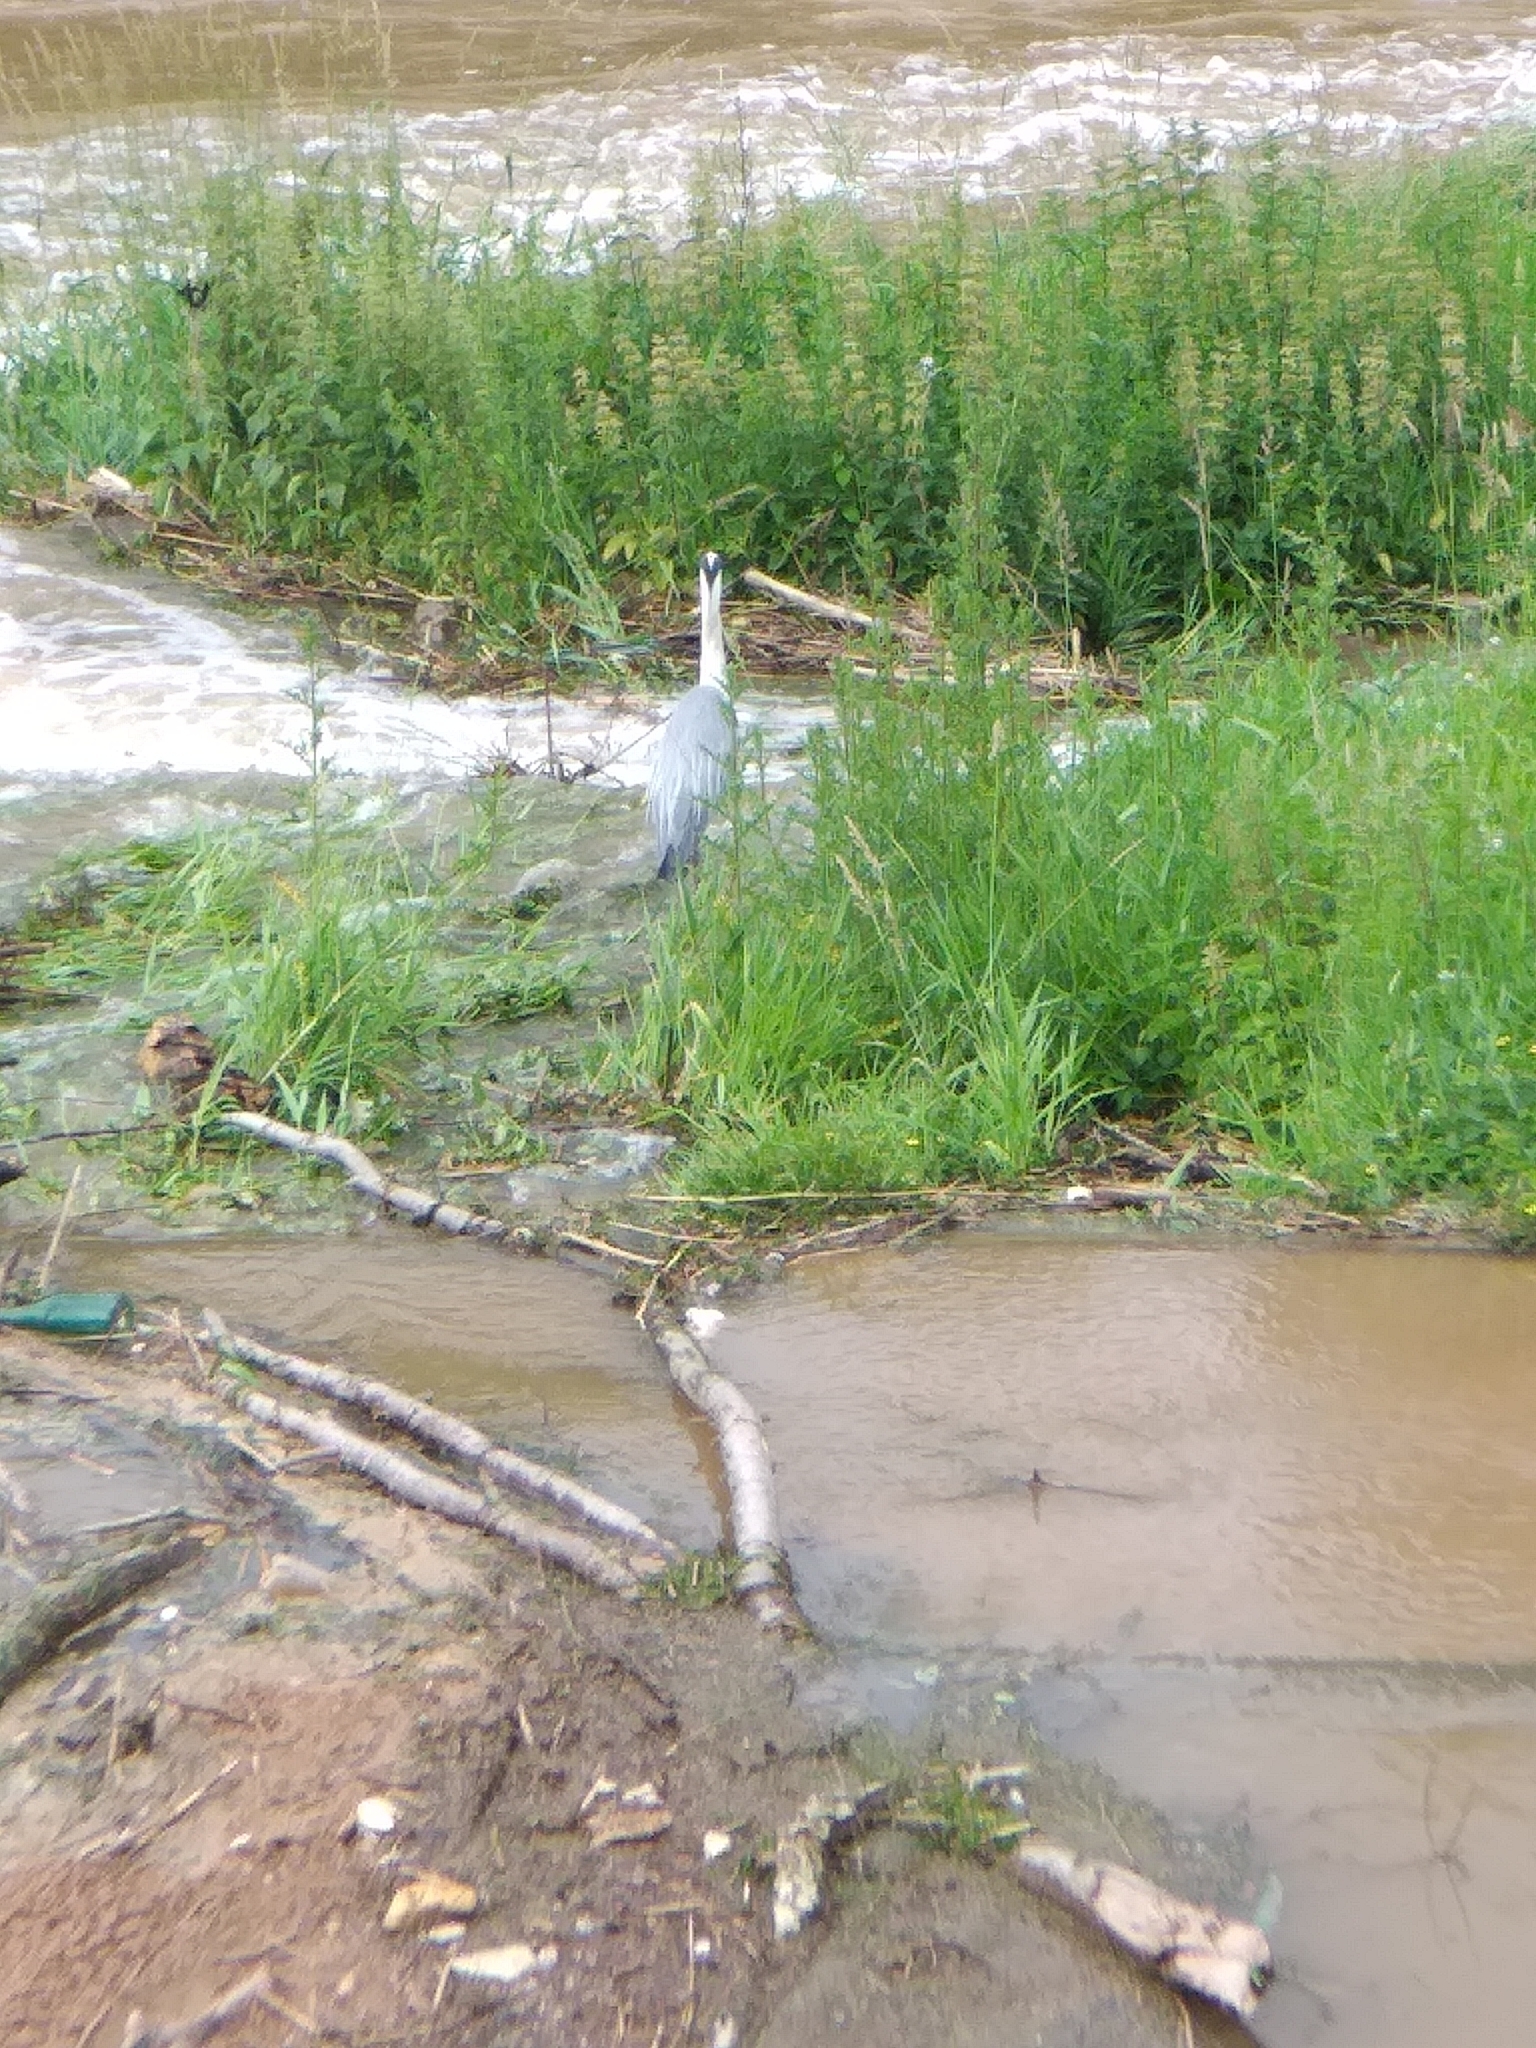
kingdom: Animalia
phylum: Chordata
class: Aves
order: Pelecaniformes
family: Ardeidae
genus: Ardea
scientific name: Ardea cinerea
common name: Grey heron
